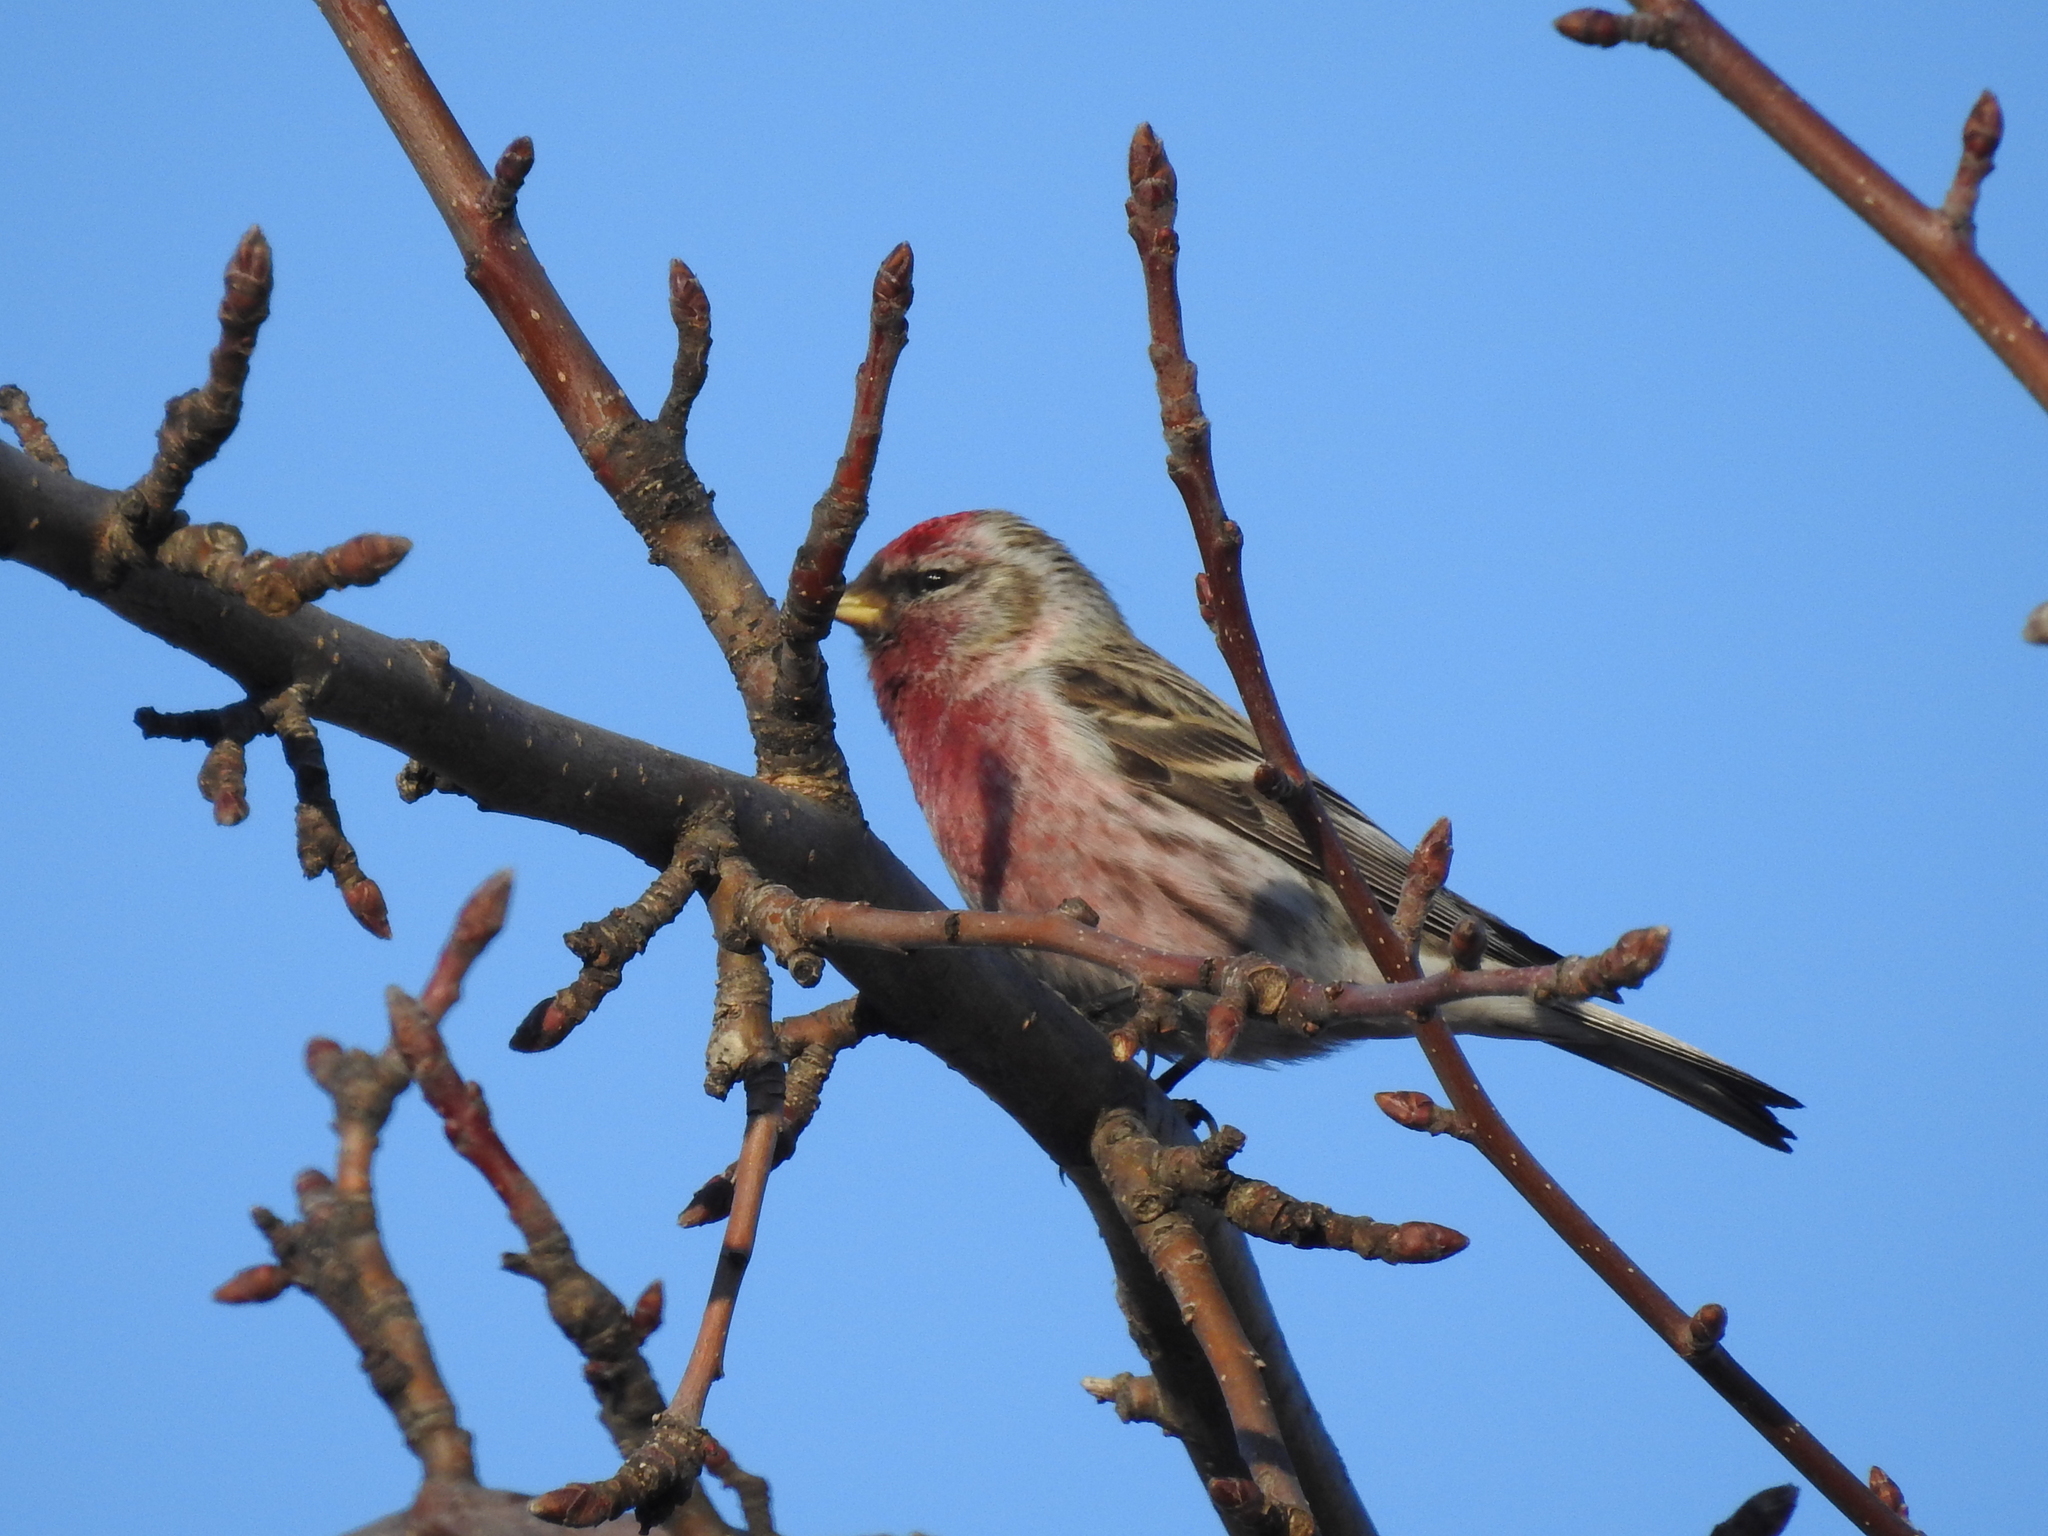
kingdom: Animalia
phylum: Chordata
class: Aves
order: Passeriformes
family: Fringillidae
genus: Acanthis
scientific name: Acanthis flammea
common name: Common redpoll
